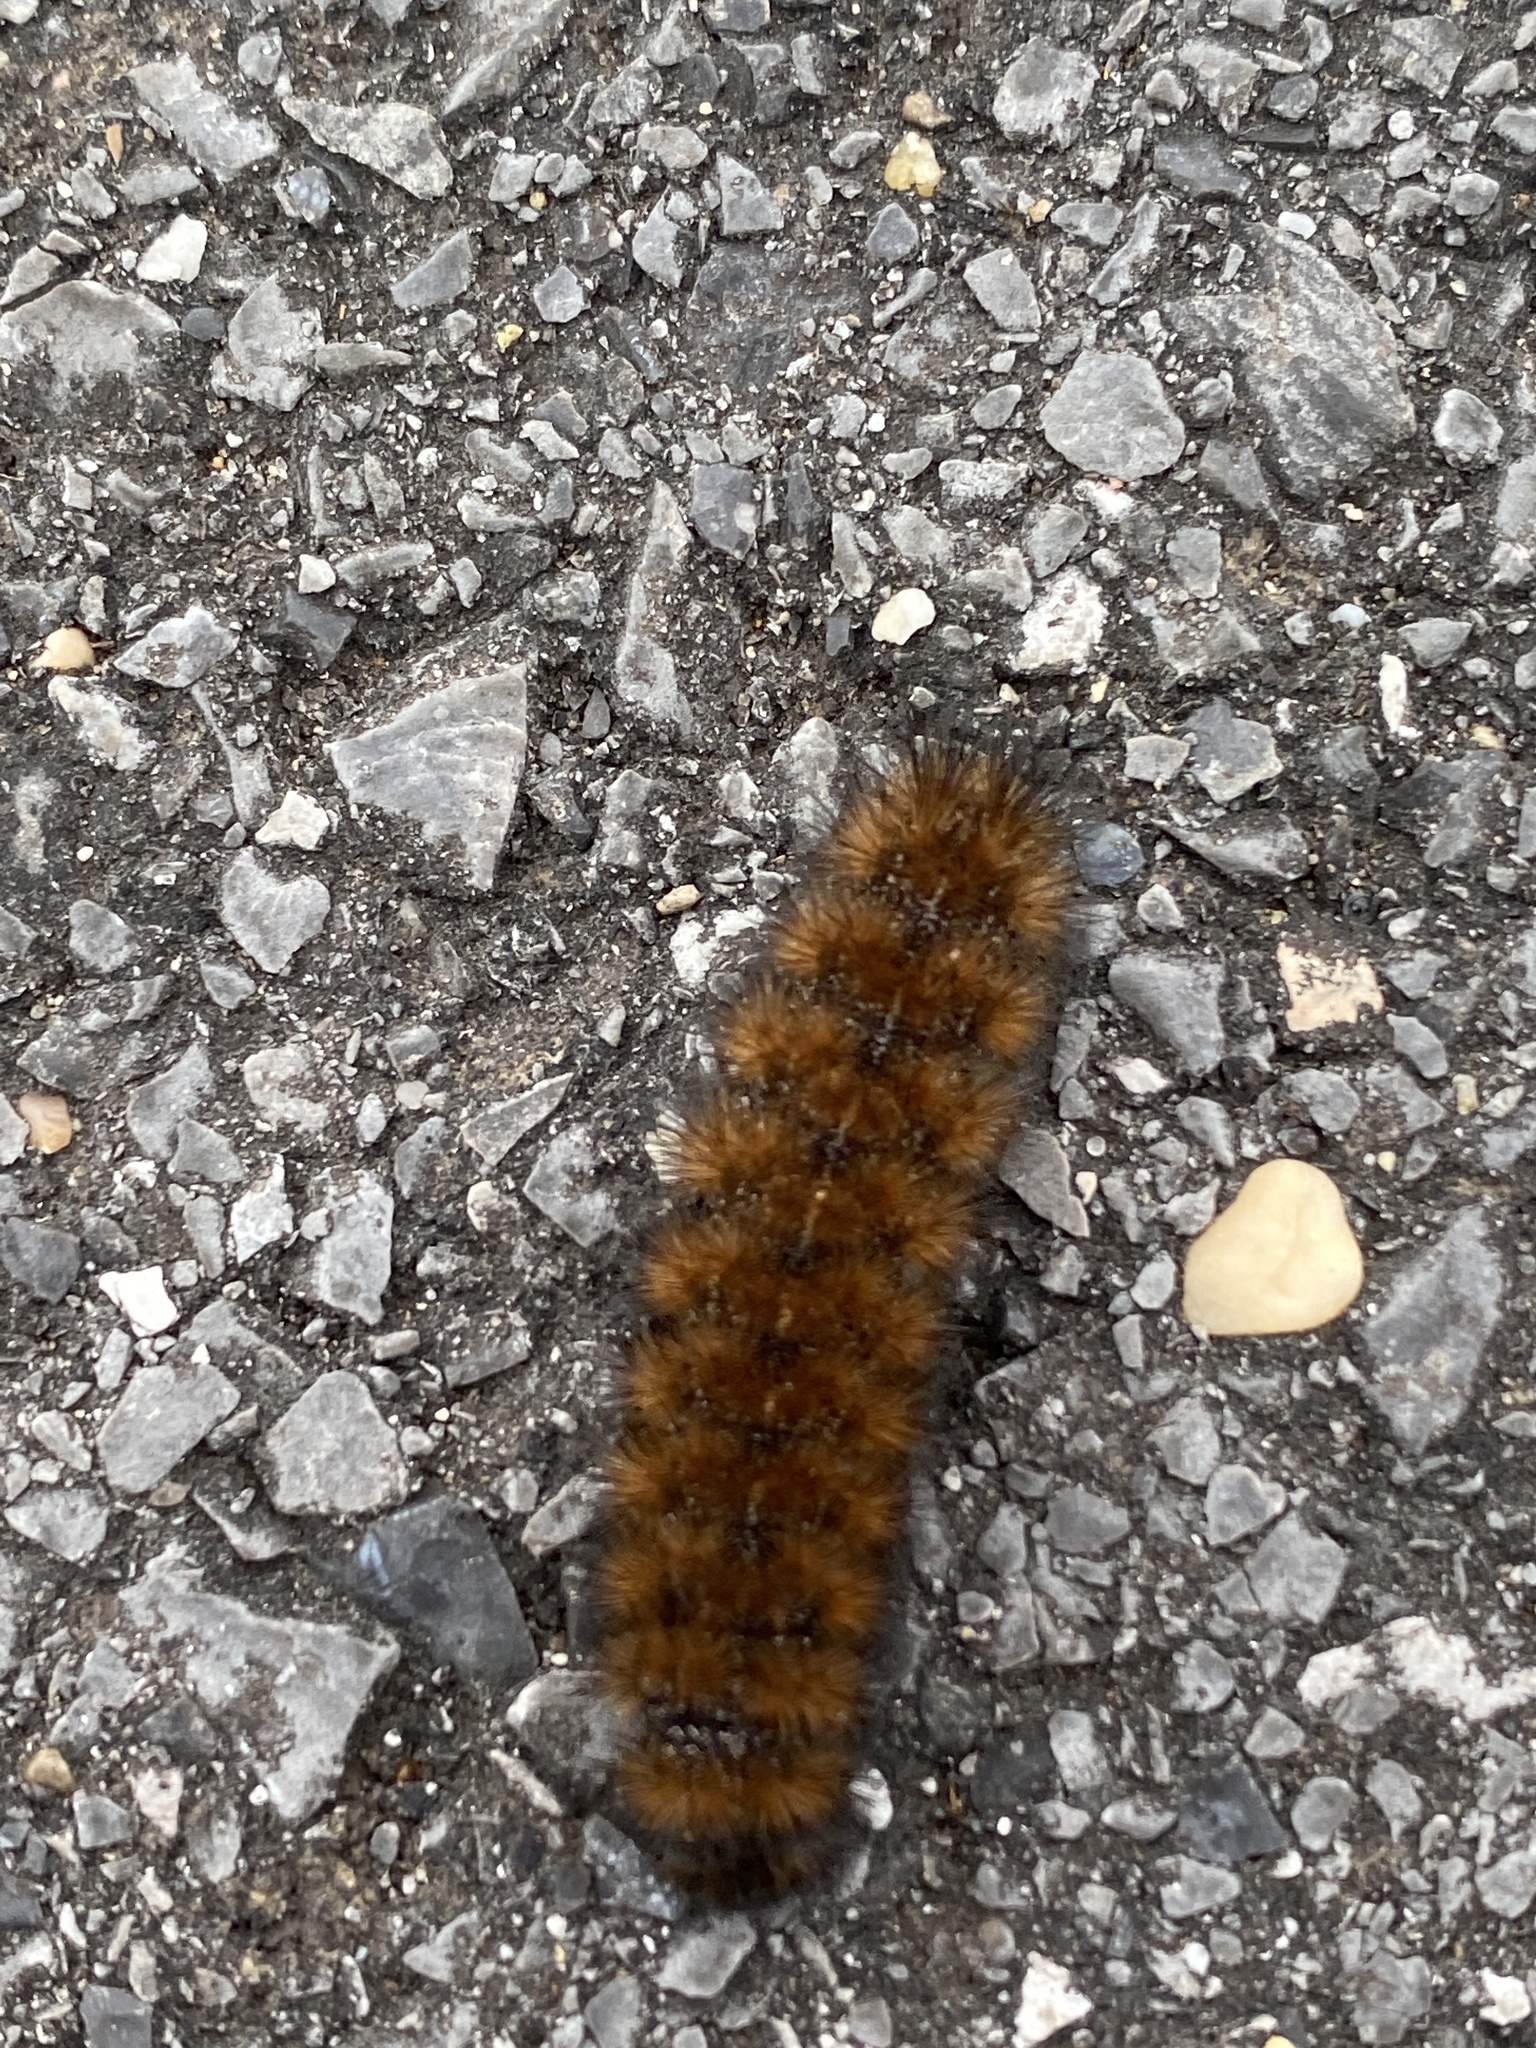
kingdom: Animalia
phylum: Arthropoda
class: Insecta
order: Lepidoptera
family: Erebidae
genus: Pyrrharctia
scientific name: Pyrrharctia isabella
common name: Isabella tiger moth
